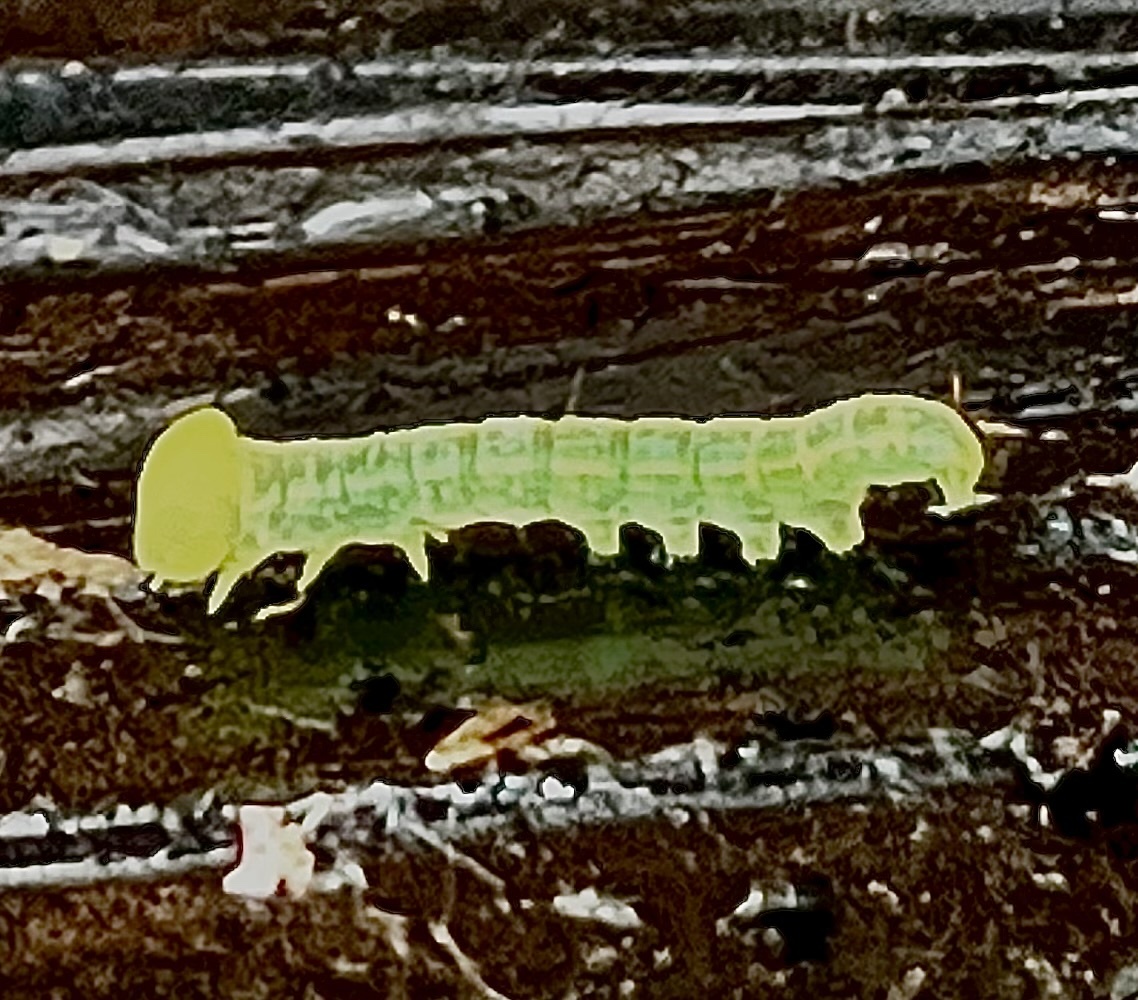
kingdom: Animalia
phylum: Arthropoda
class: Insecta
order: Lepidoptera
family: Notodontidae
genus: Nadata
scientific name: Nadata gibbosa
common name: White-dotted prominent
